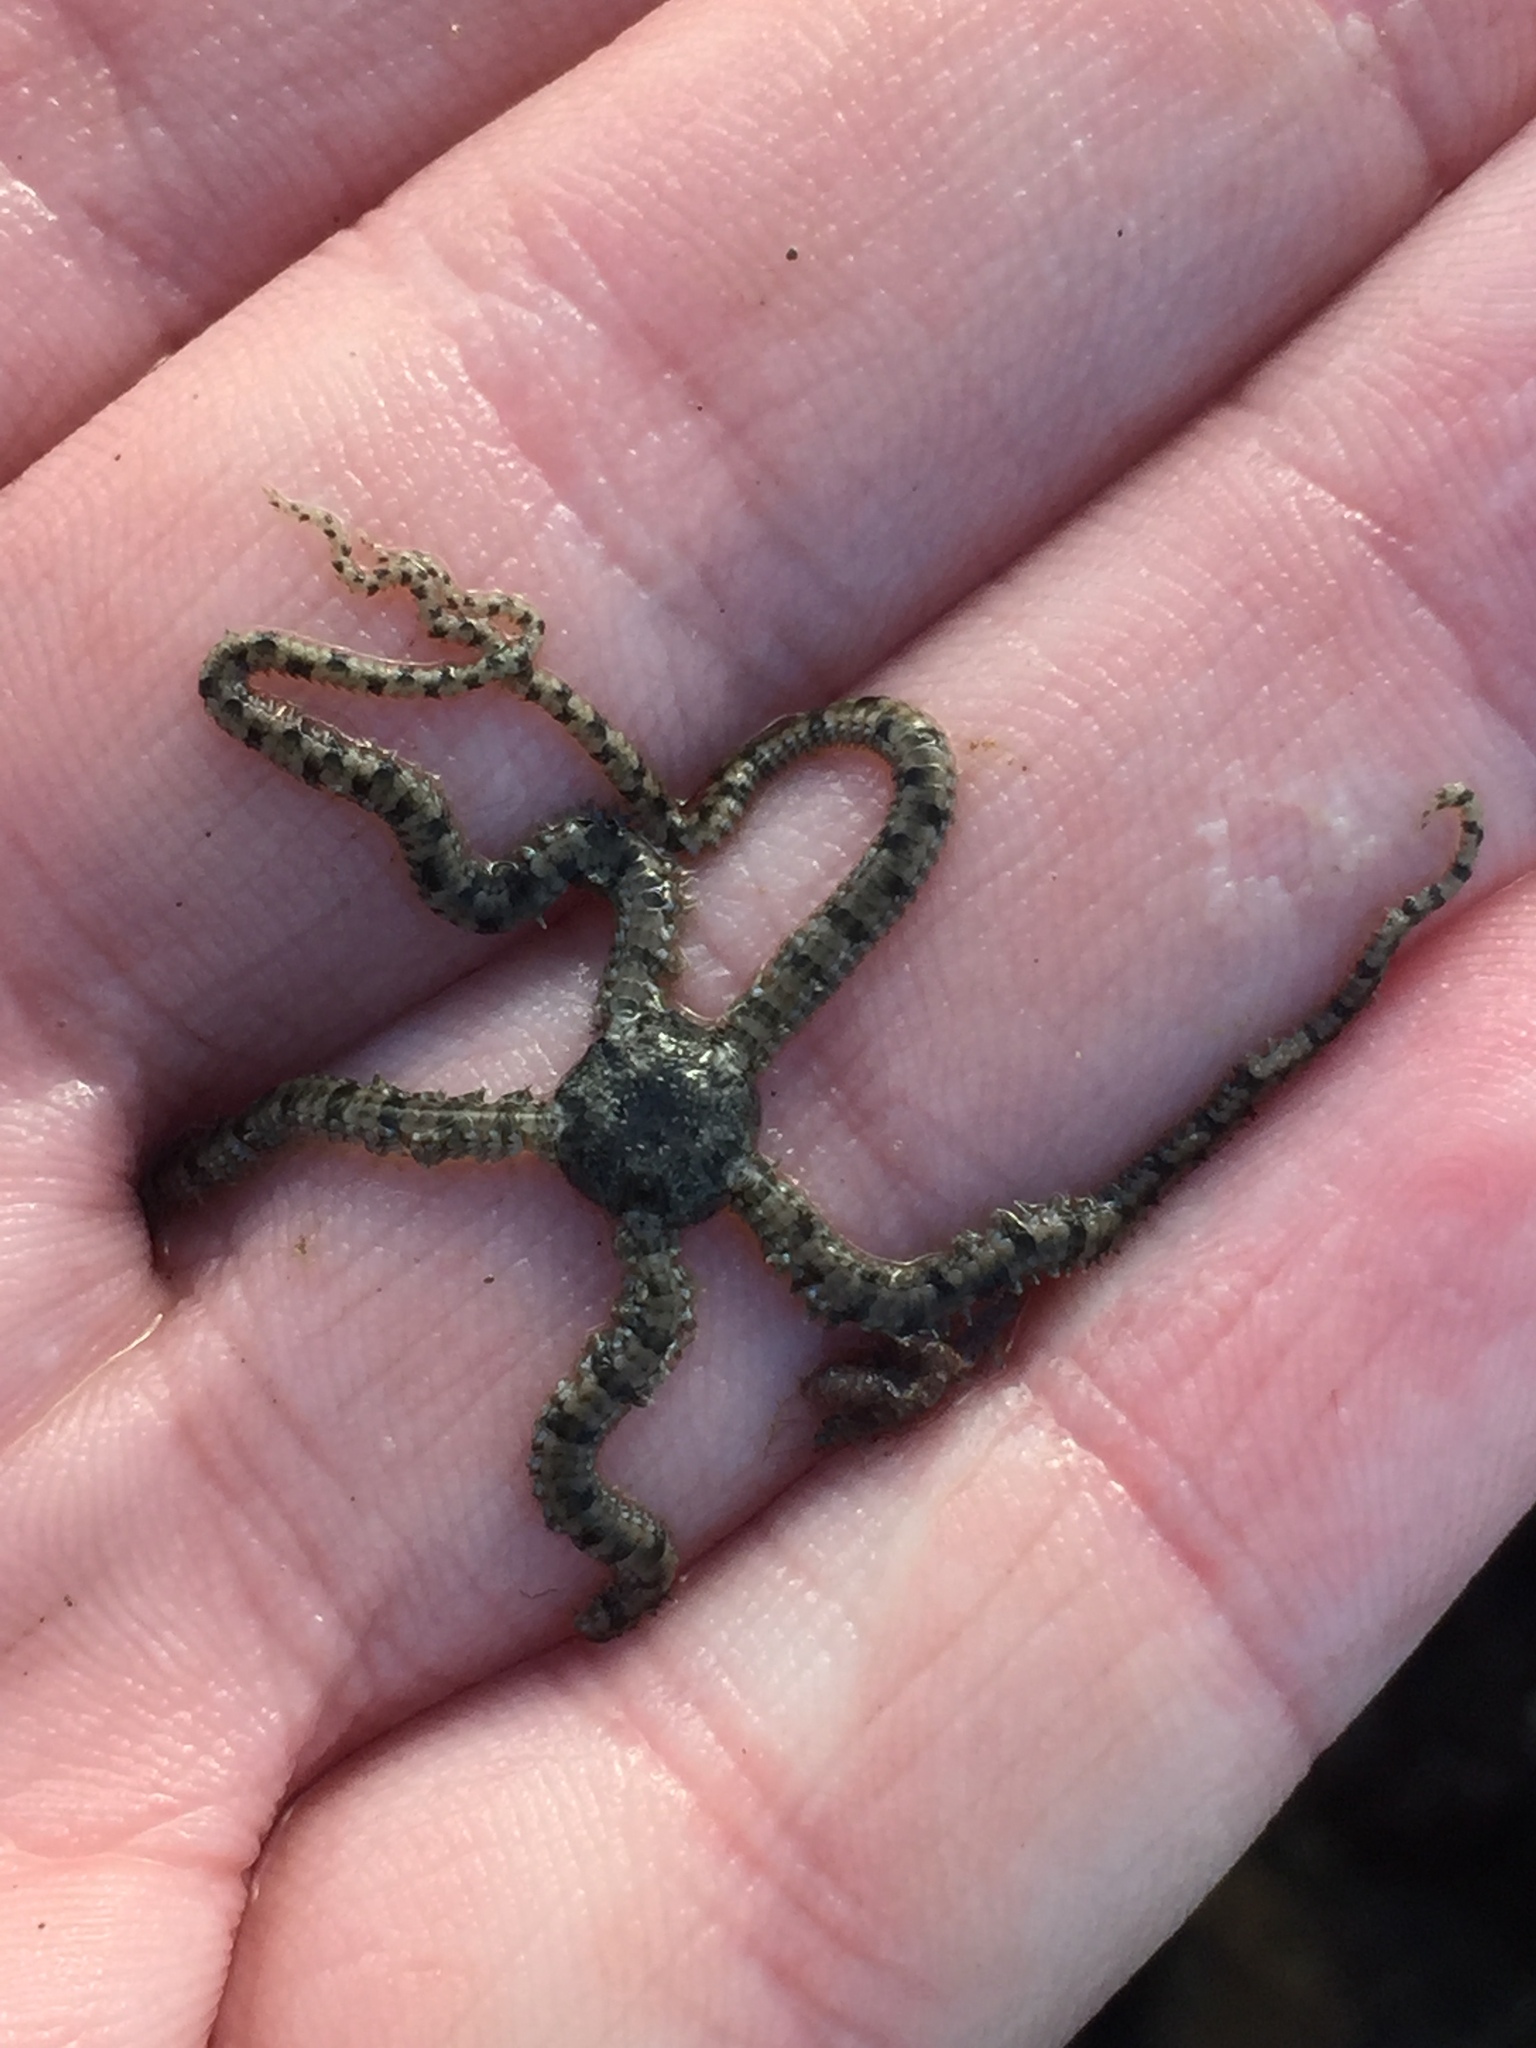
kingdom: Animalia
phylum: Echinodermata
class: Ophiuroidea
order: Amphilepidida
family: Ophiactidae
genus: Ophiactis
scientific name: Ophiactis resiliens
